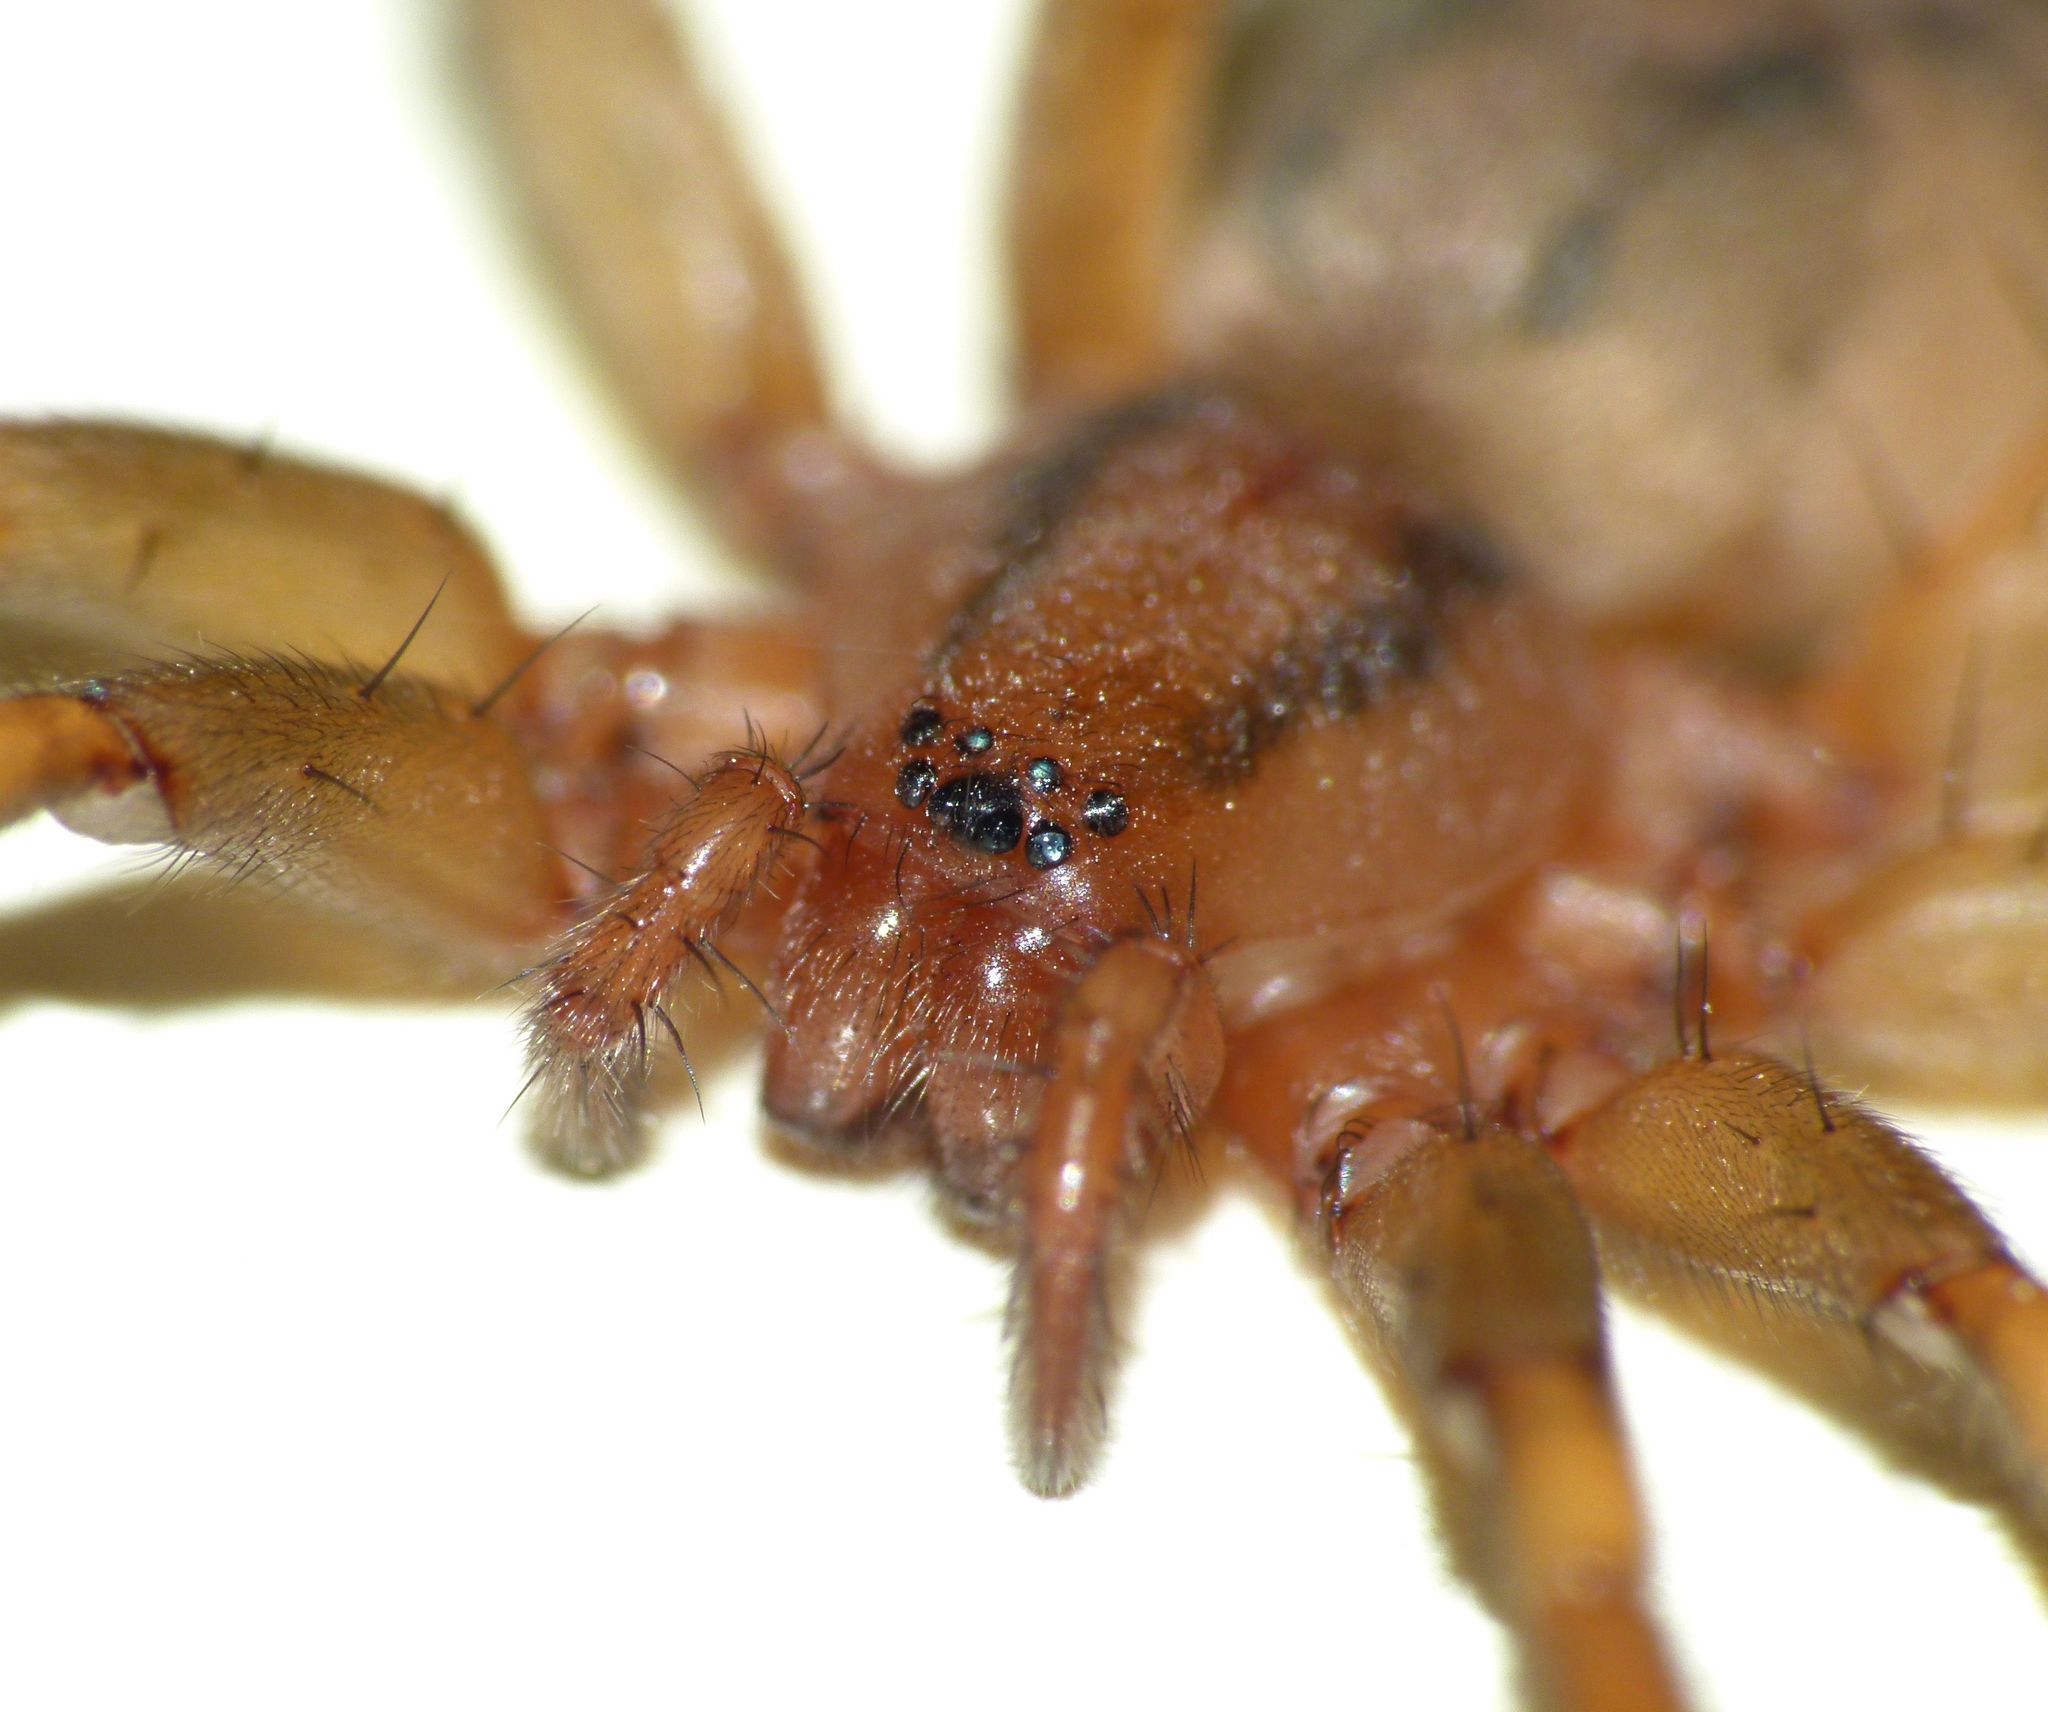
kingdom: Animalia
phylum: Arthropoda
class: Arachnida
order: Araneae
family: Gnaphosidae
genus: Notiodrassus
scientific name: Notiodrassus distinctus
